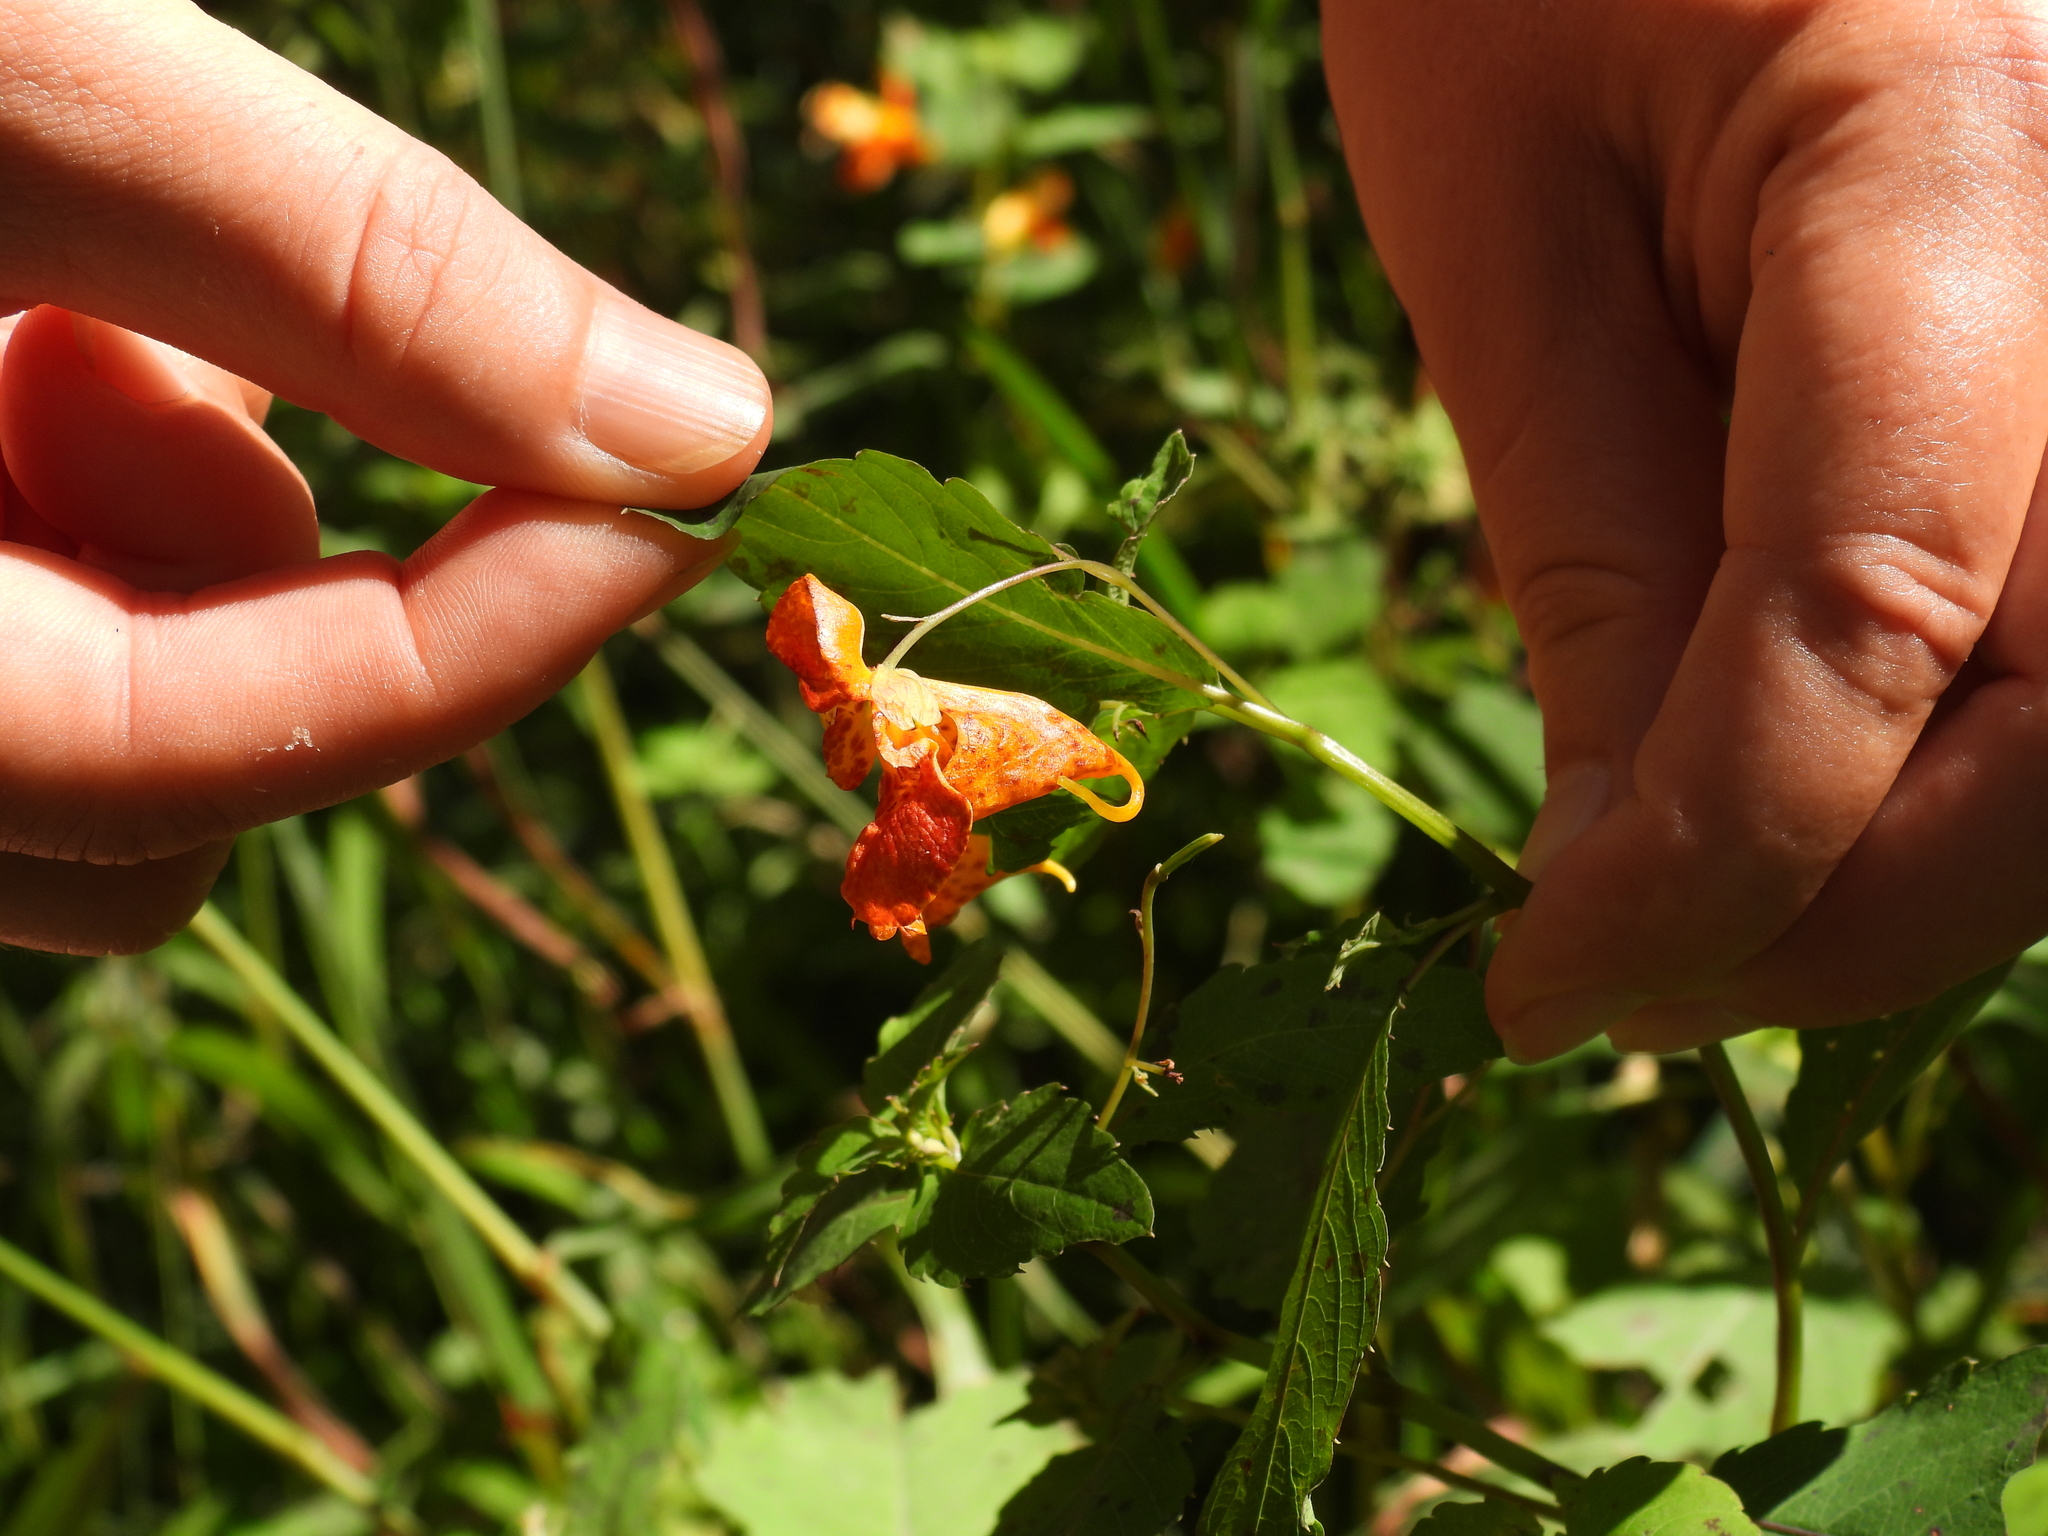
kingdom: Plantae
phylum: Tracheophyta
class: Magnoliopsida
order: Ericales
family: Balsaminaceae
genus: Impatiens
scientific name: Impatiens capensis
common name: Orange balsam
